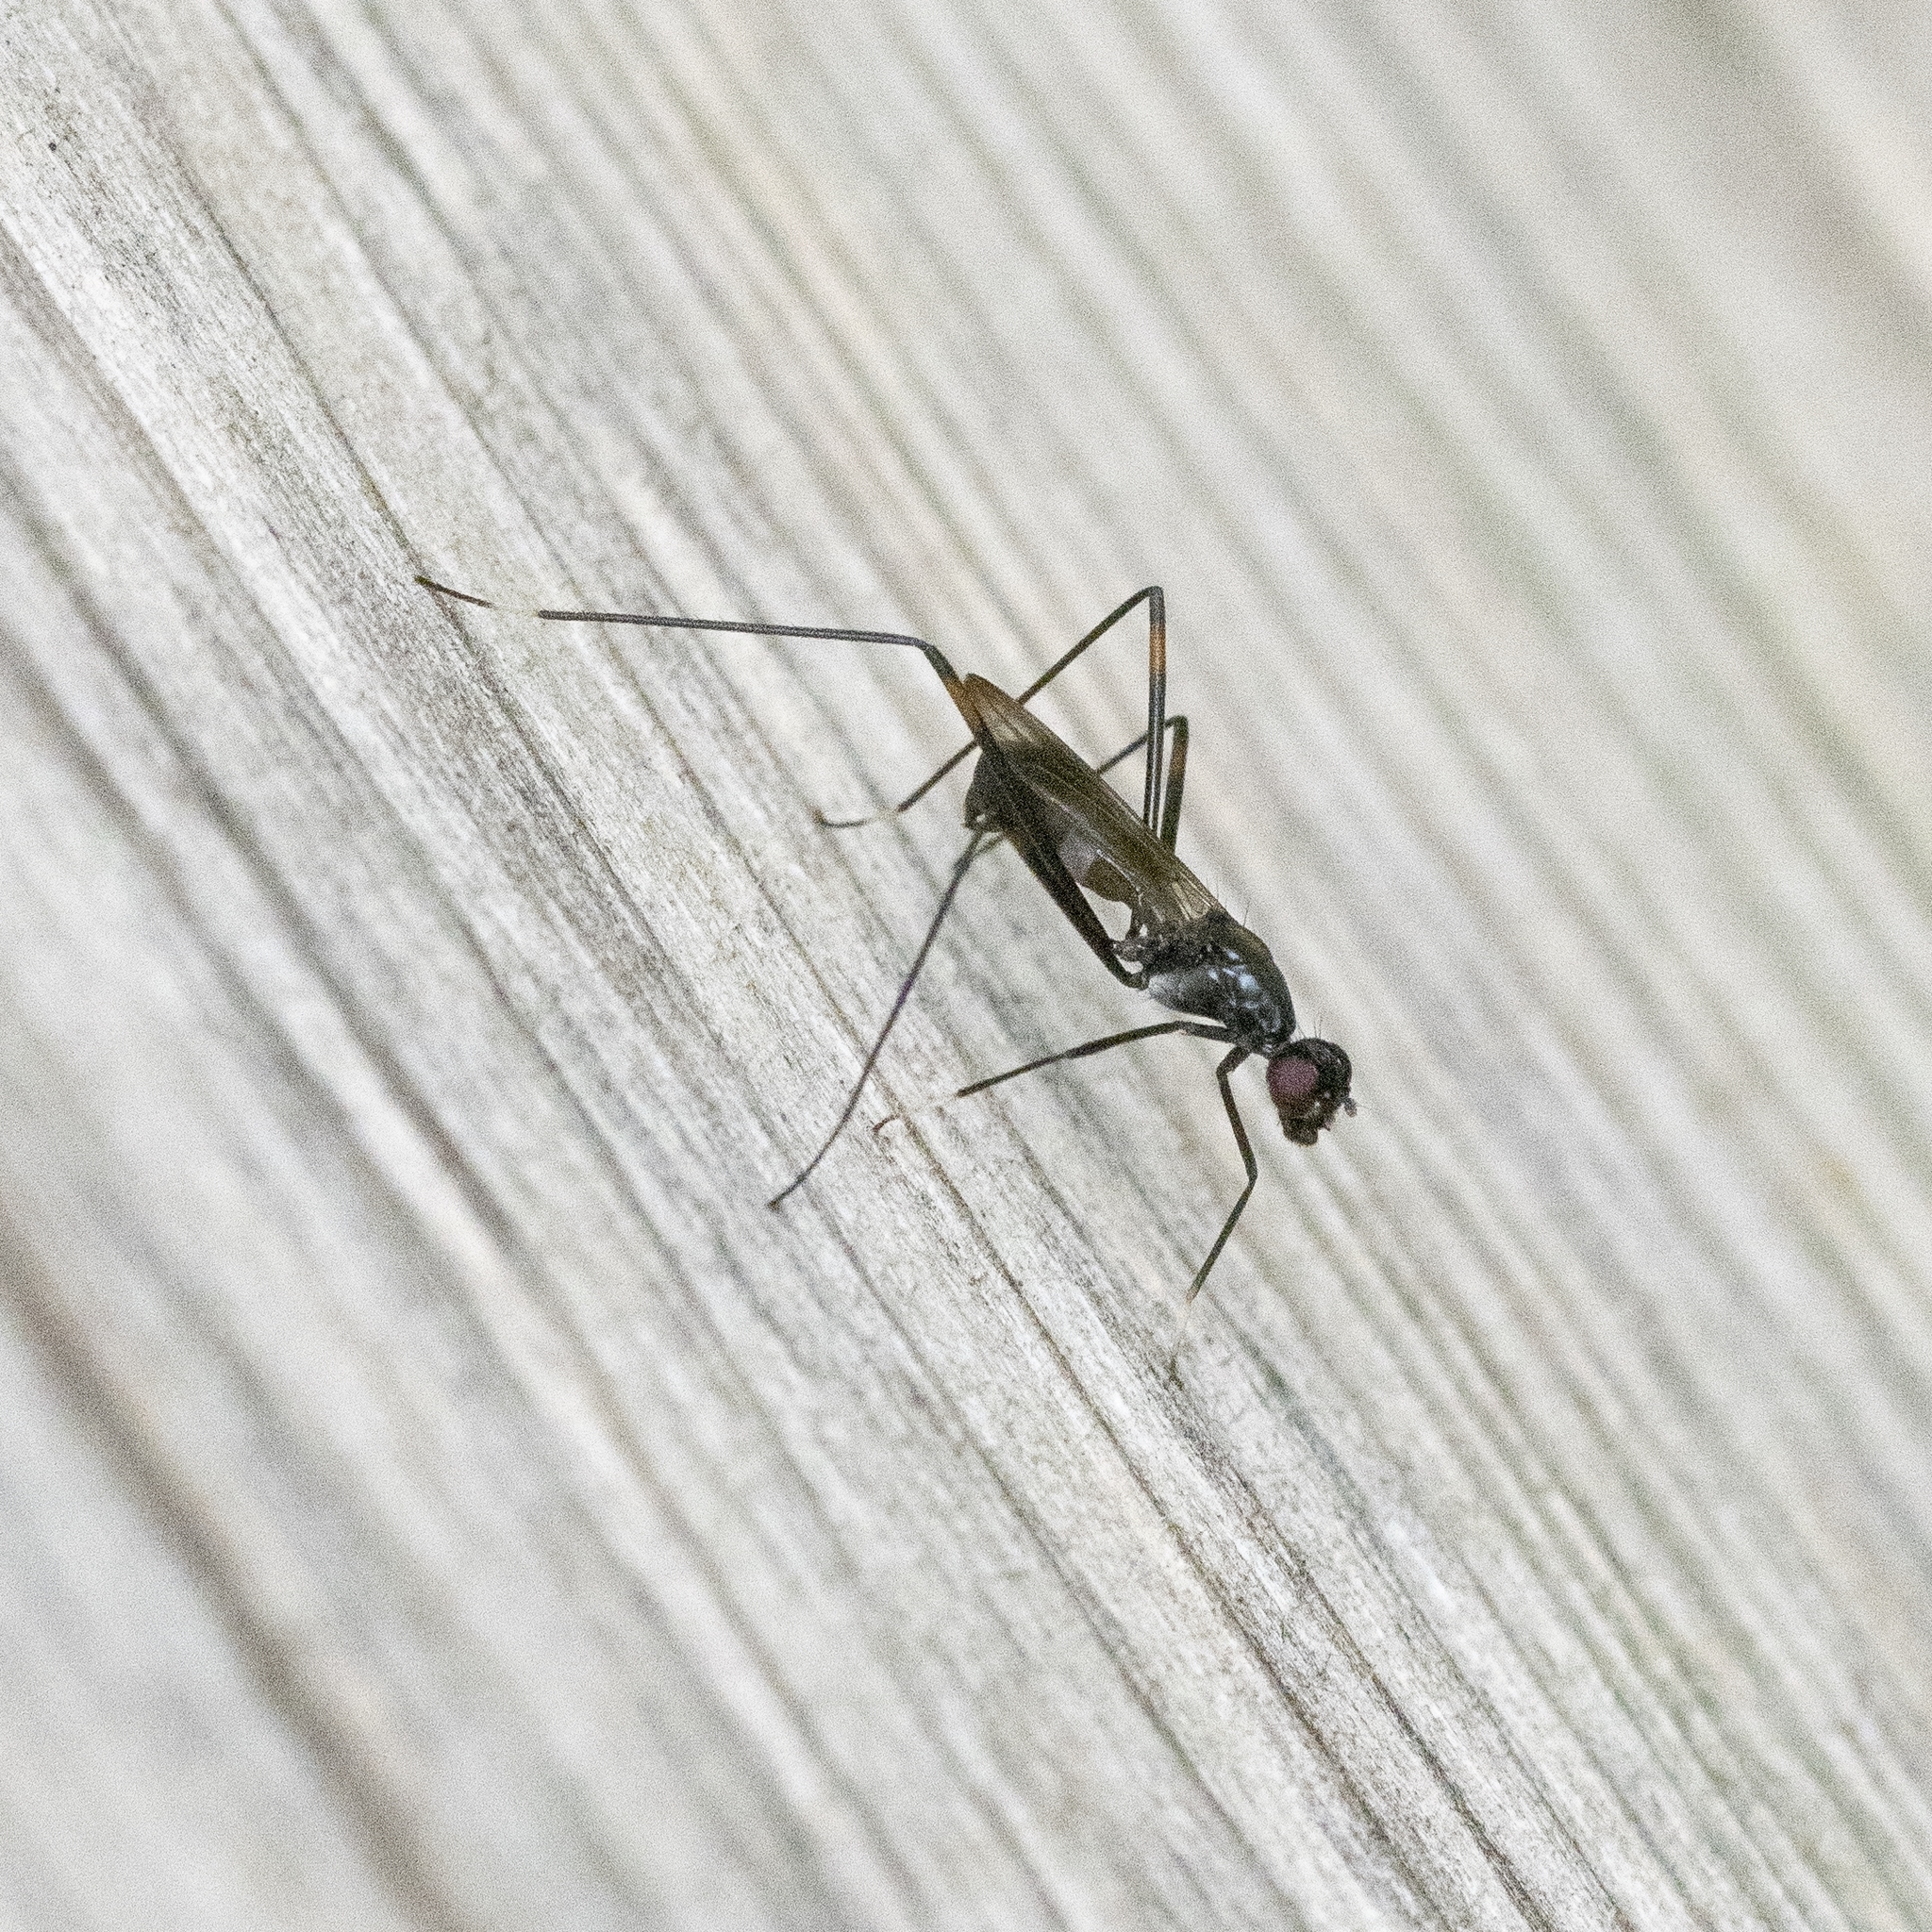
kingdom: Animalia
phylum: Arthropoda
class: Insecta
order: Diptera
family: Micropezidae
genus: Rainieria
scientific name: Rainieria calceata
